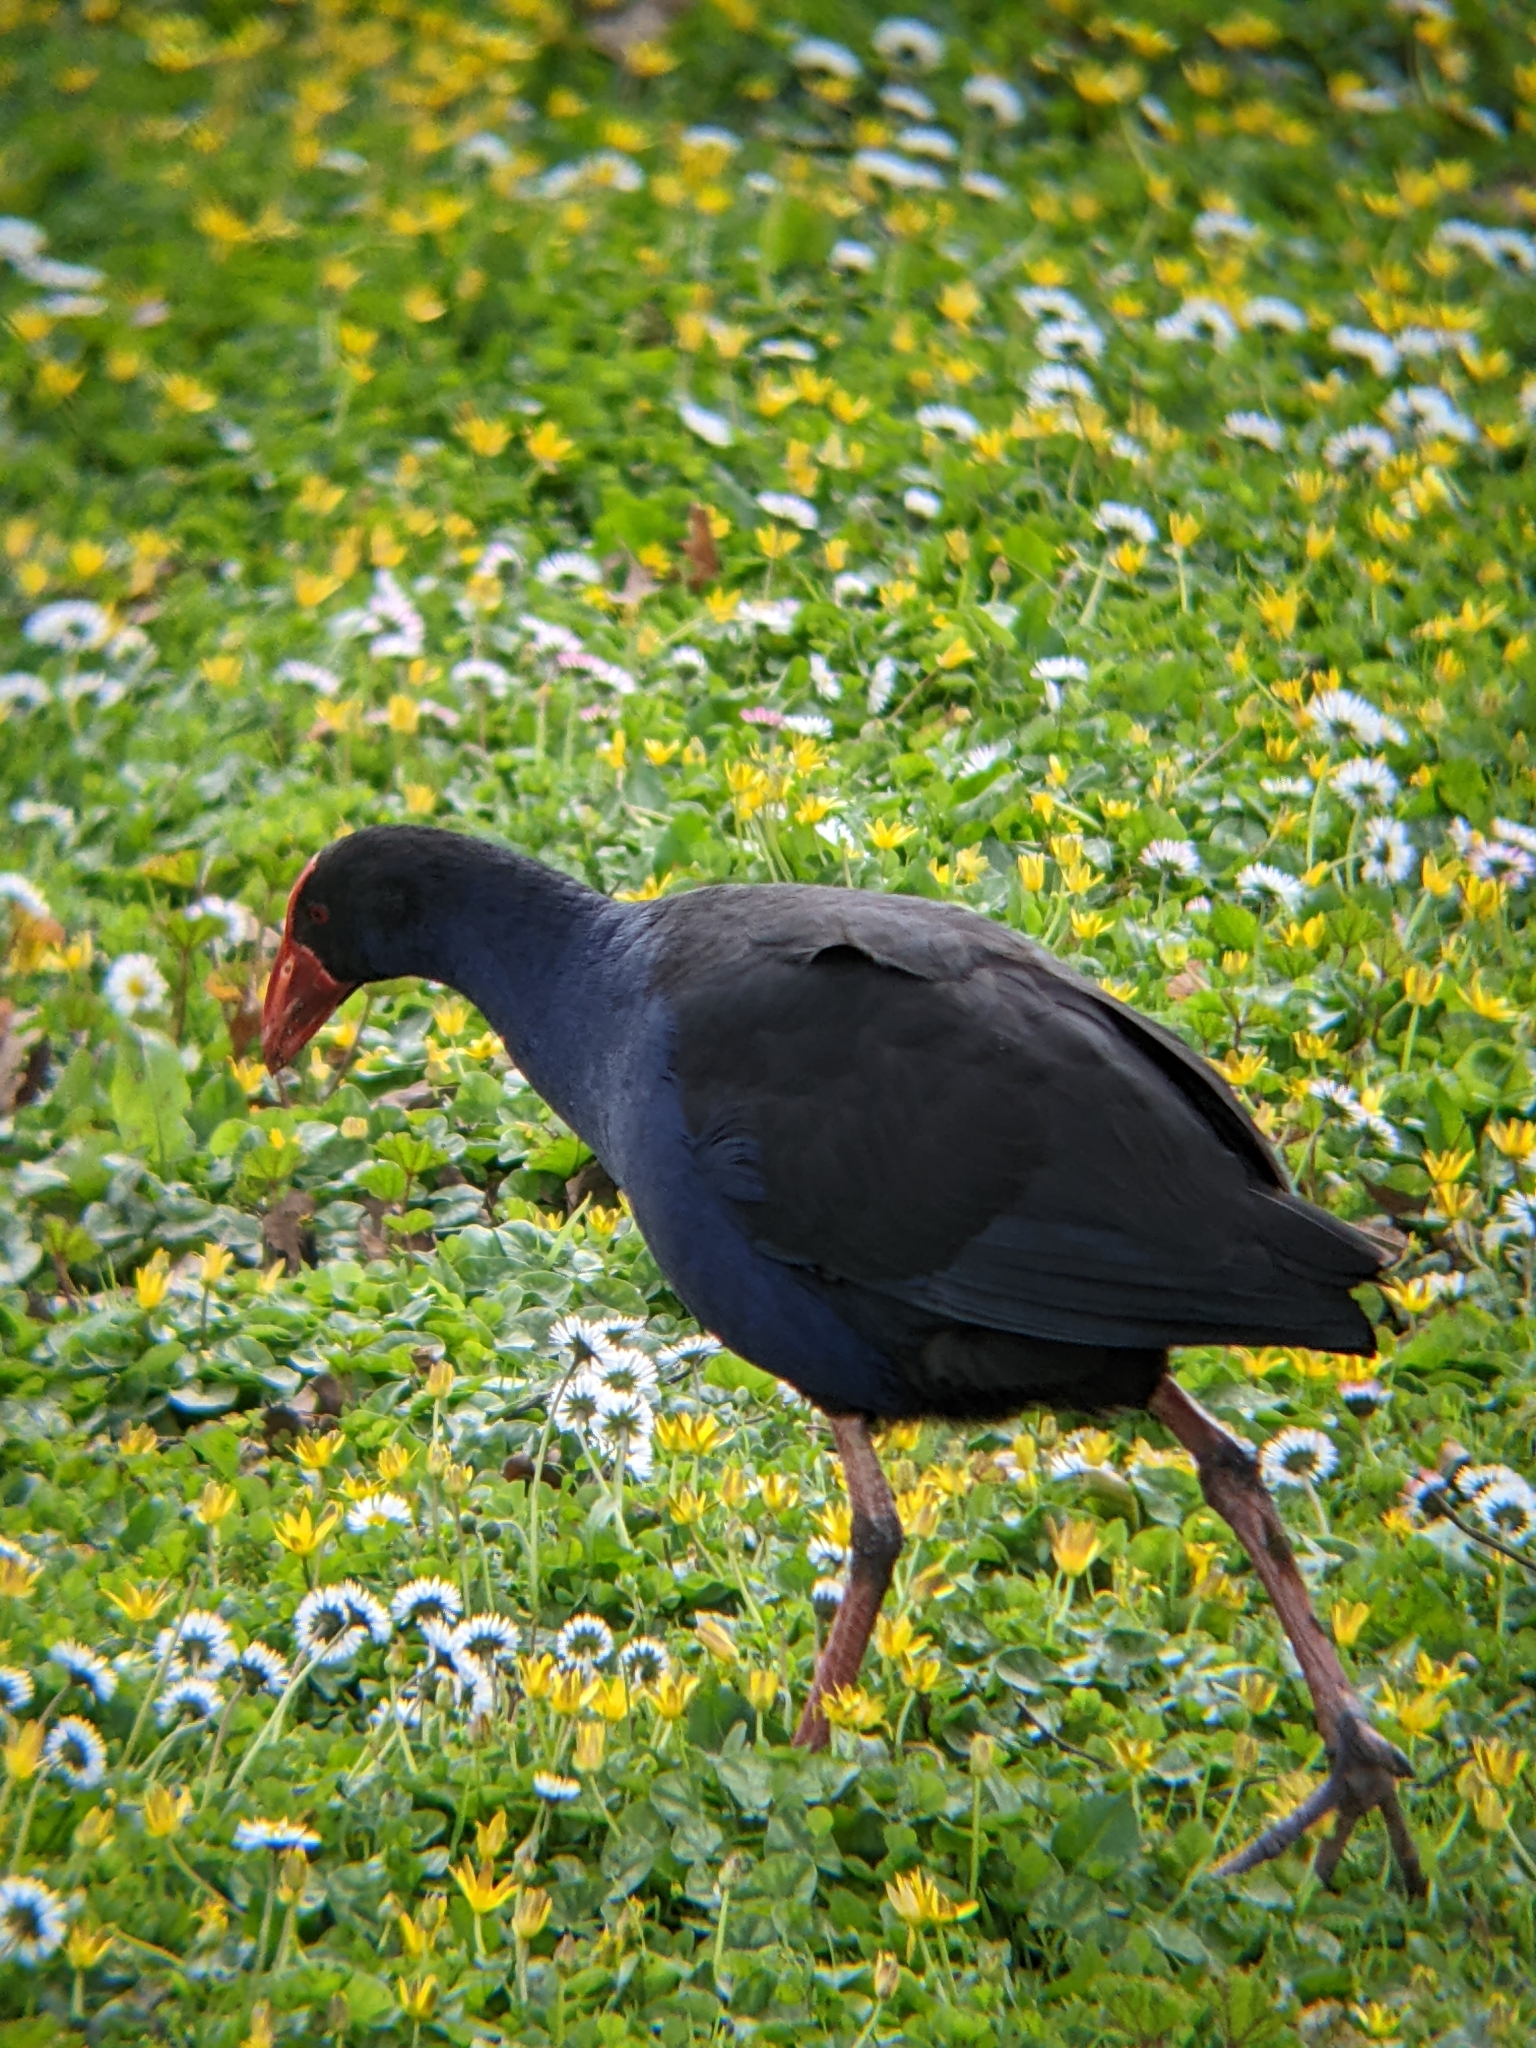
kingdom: Animalia
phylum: Chordata
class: Aves
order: Gruiformes
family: Rallidae
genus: Porphyrio
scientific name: Porphyrio melanotus
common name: Australasian swamphen
